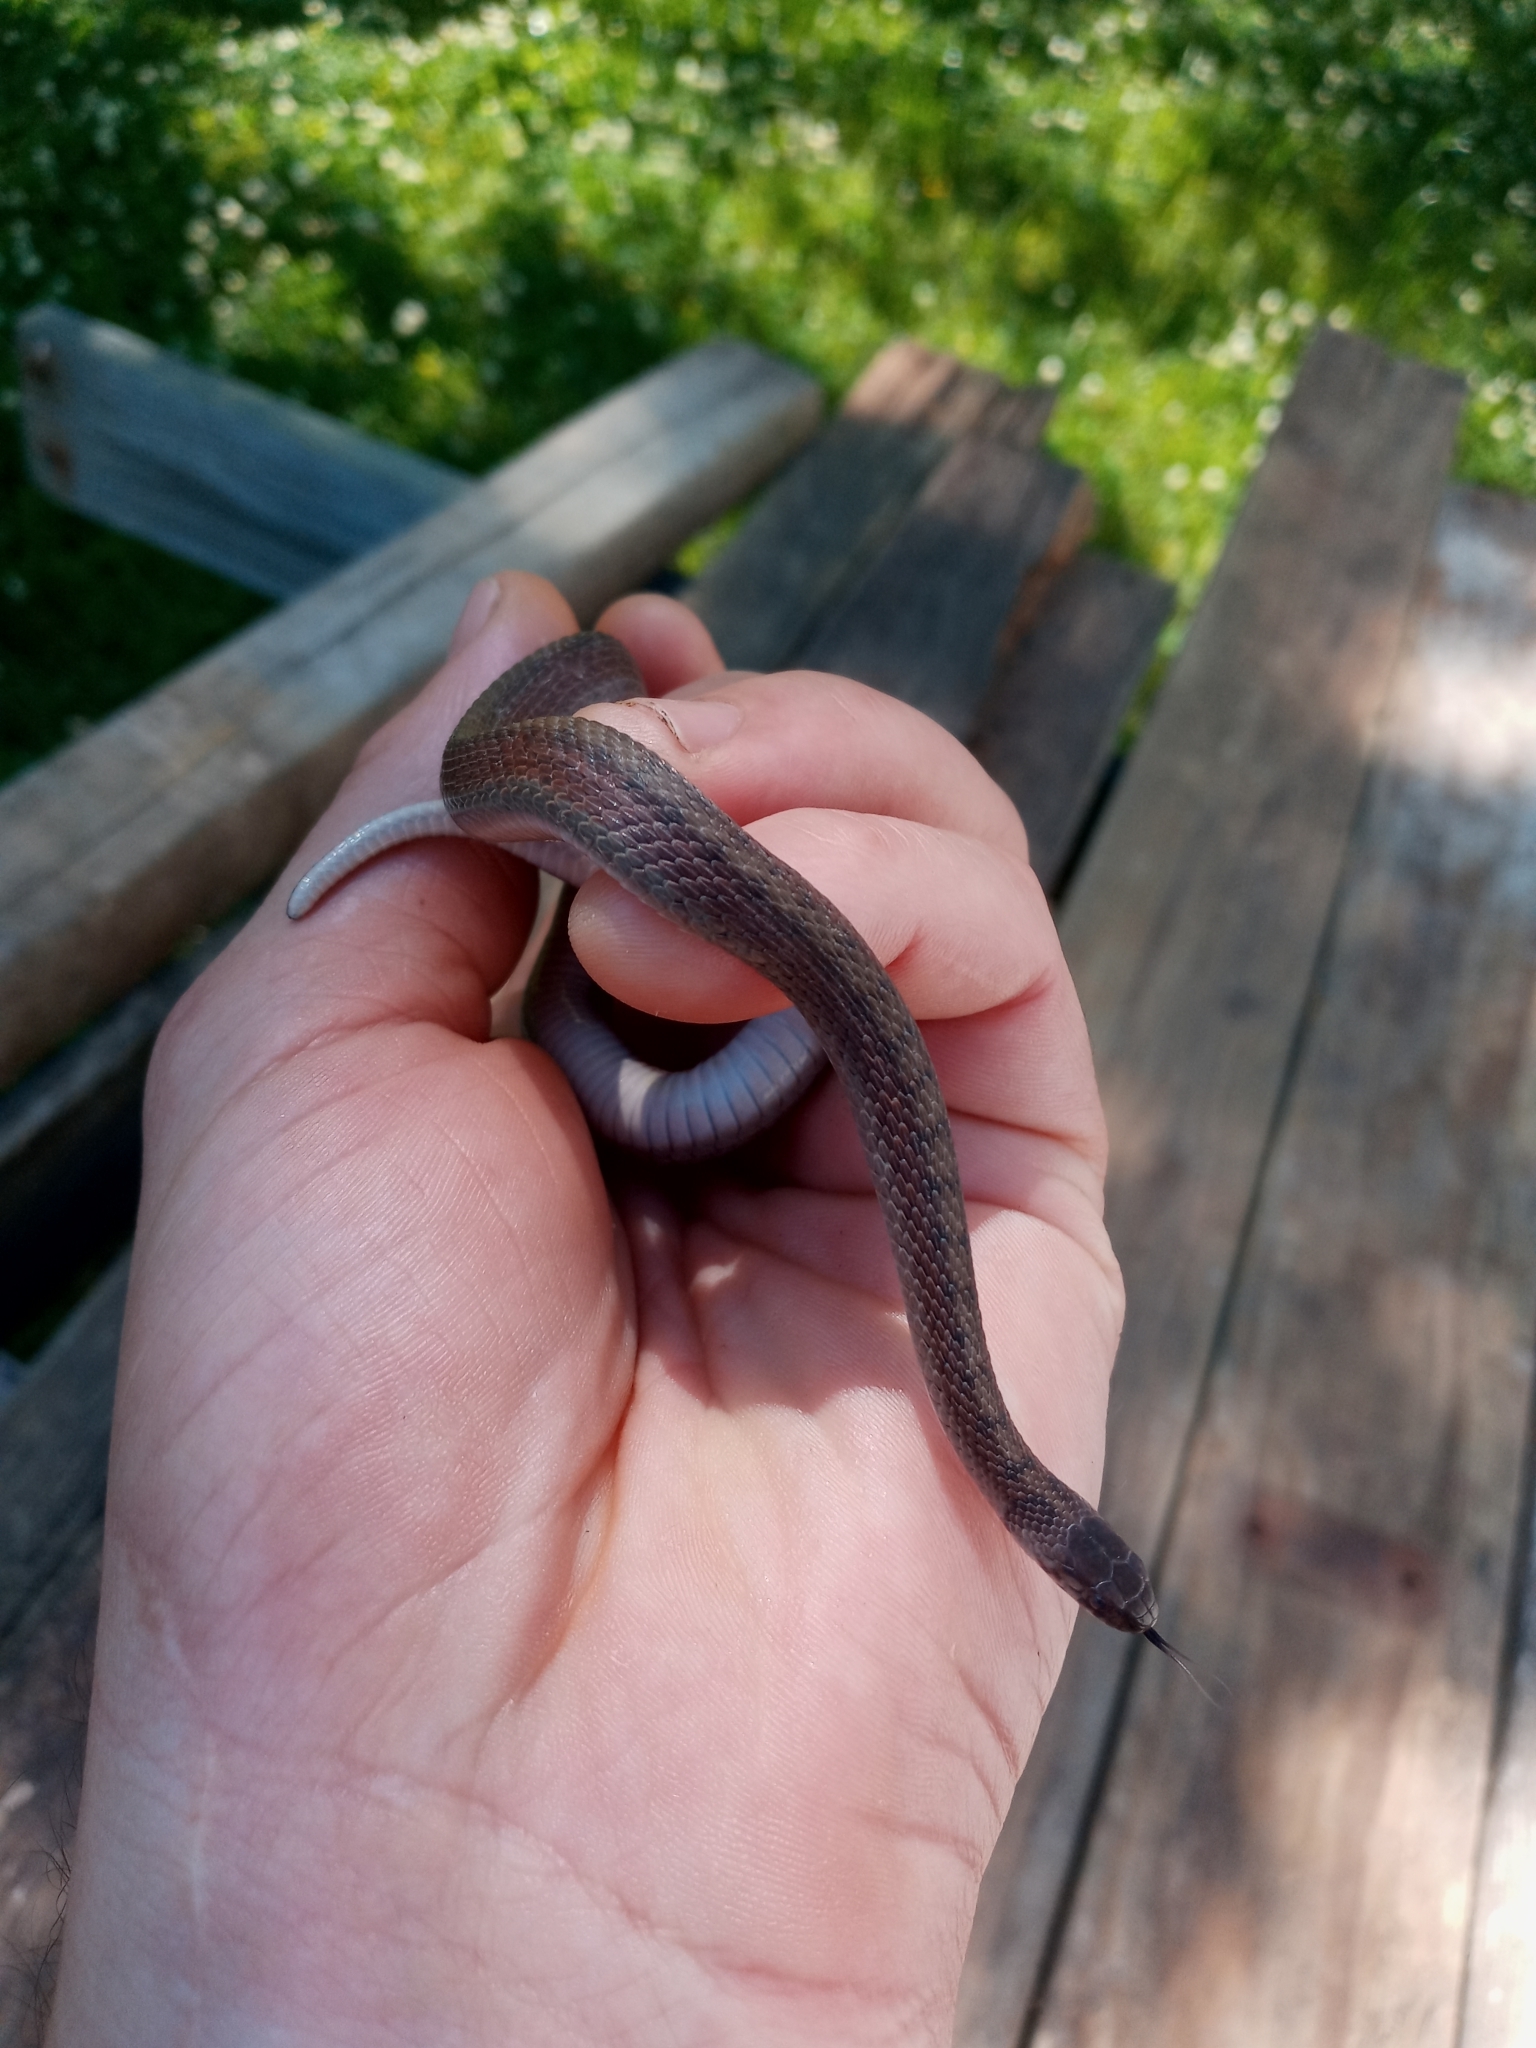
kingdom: Animalia
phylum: Chordata
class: Squamata
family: Colubridae
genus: Storeria
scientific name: Storeria dekayi
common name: (dekay’s) brown snake
